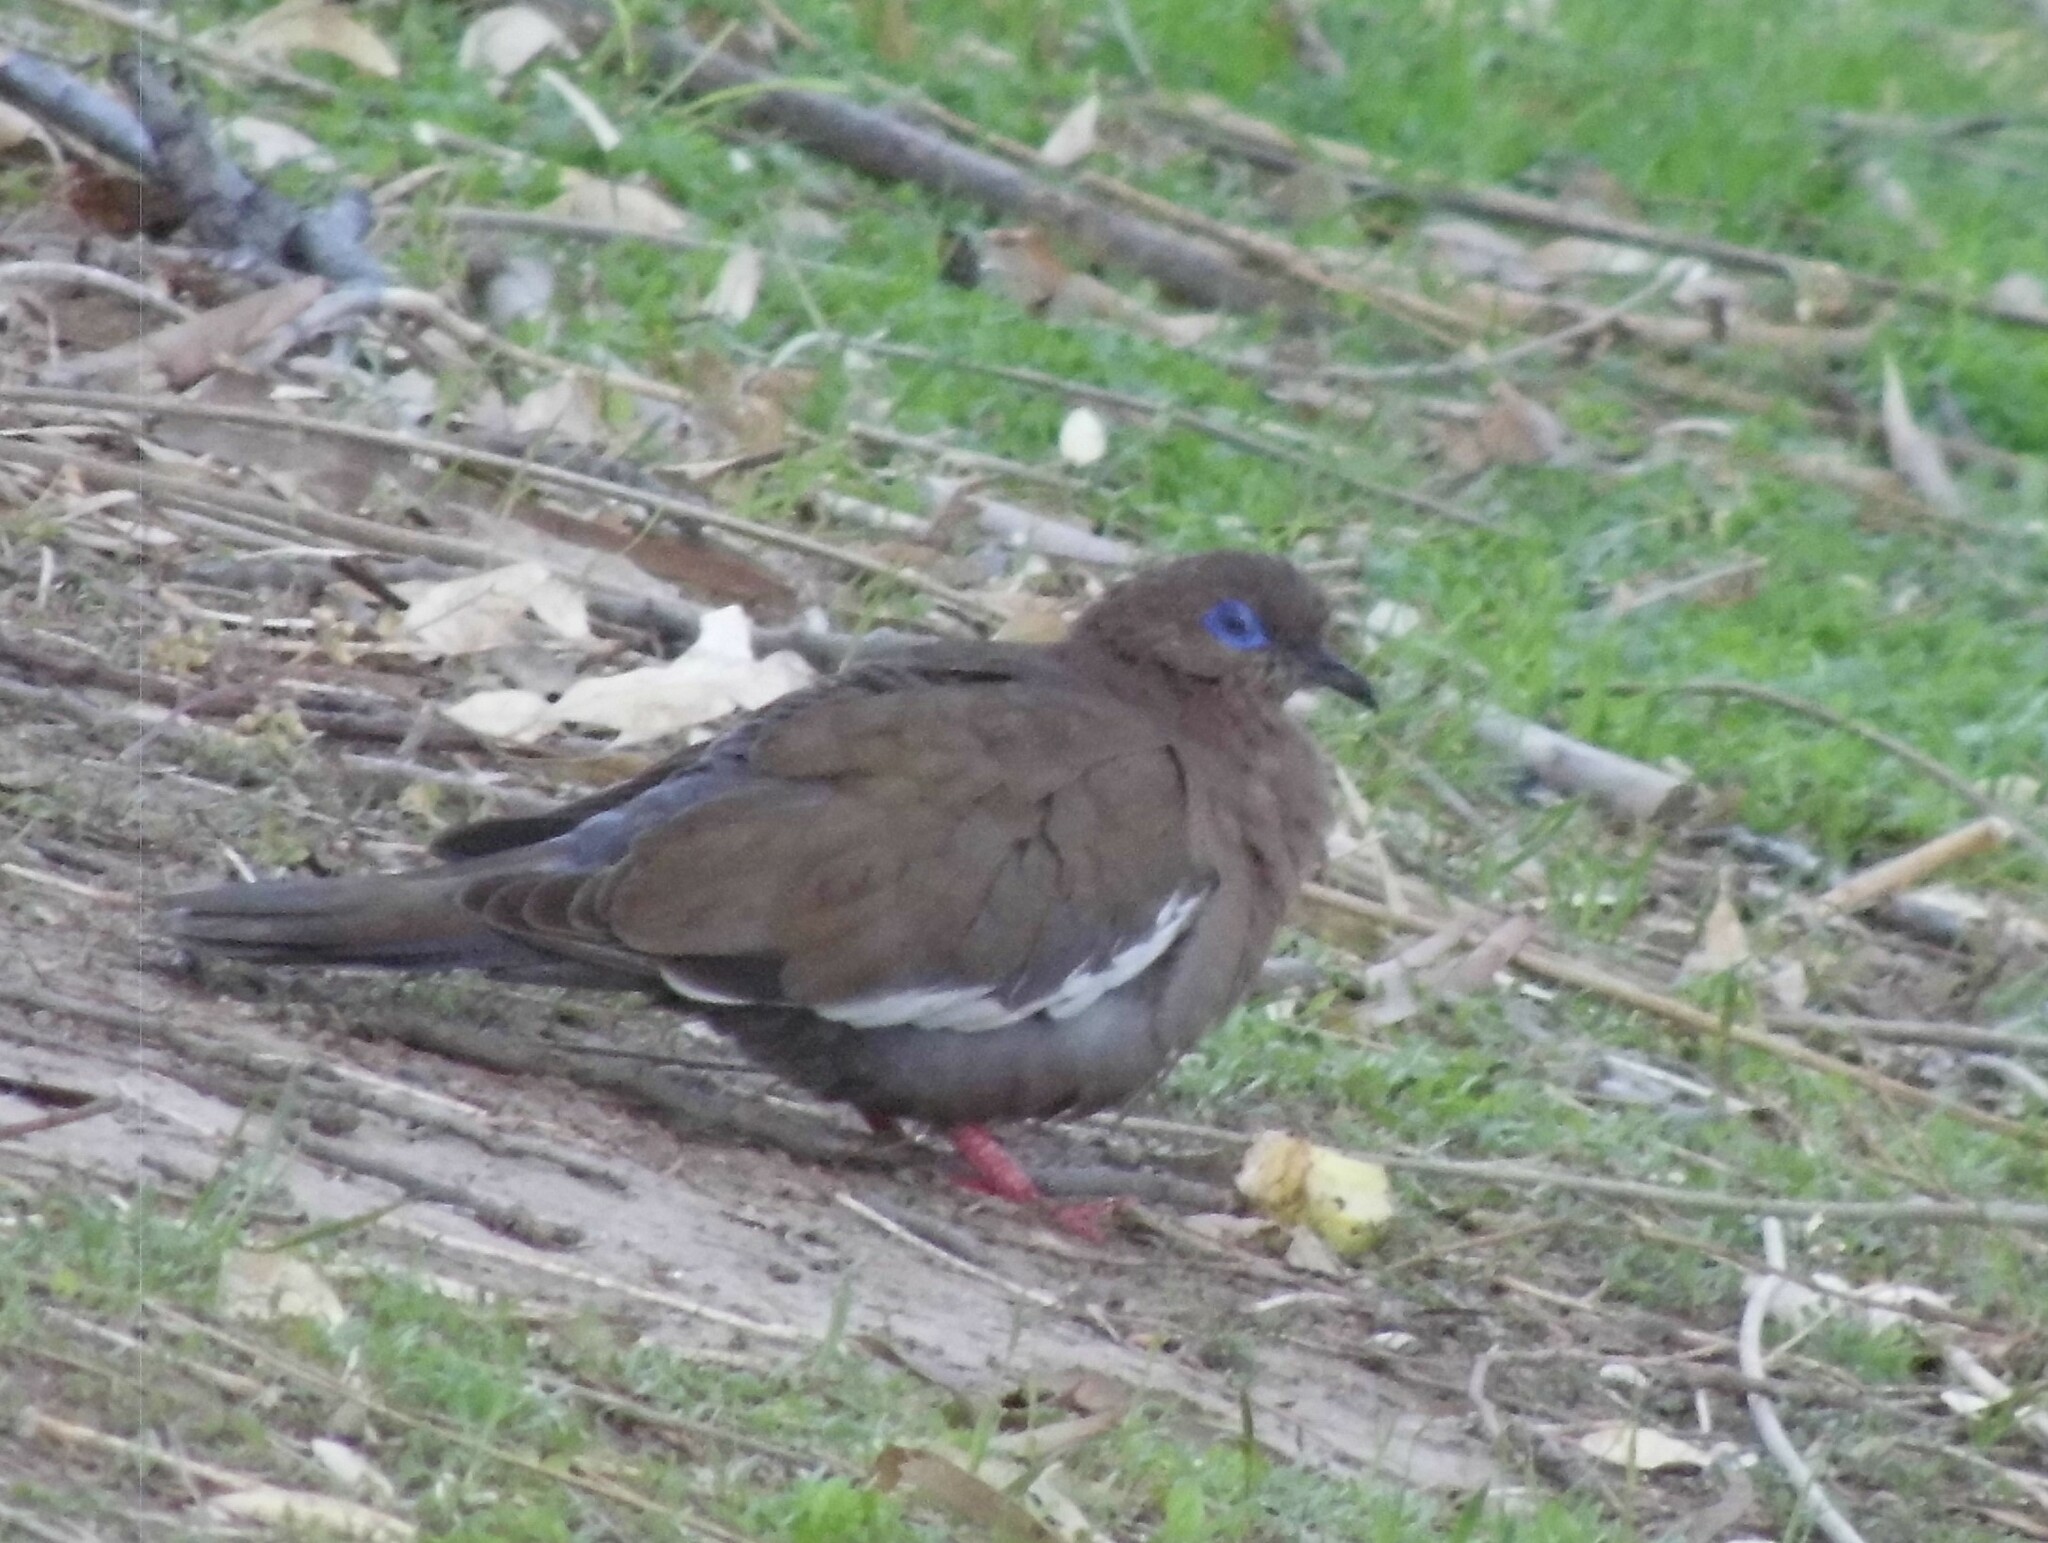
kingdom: Animalia
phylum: Chordata
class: Aves
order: Columbiformes
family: Columbidae
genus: Zenaida
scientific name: Zenaida meloda
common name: West peruvian dove
